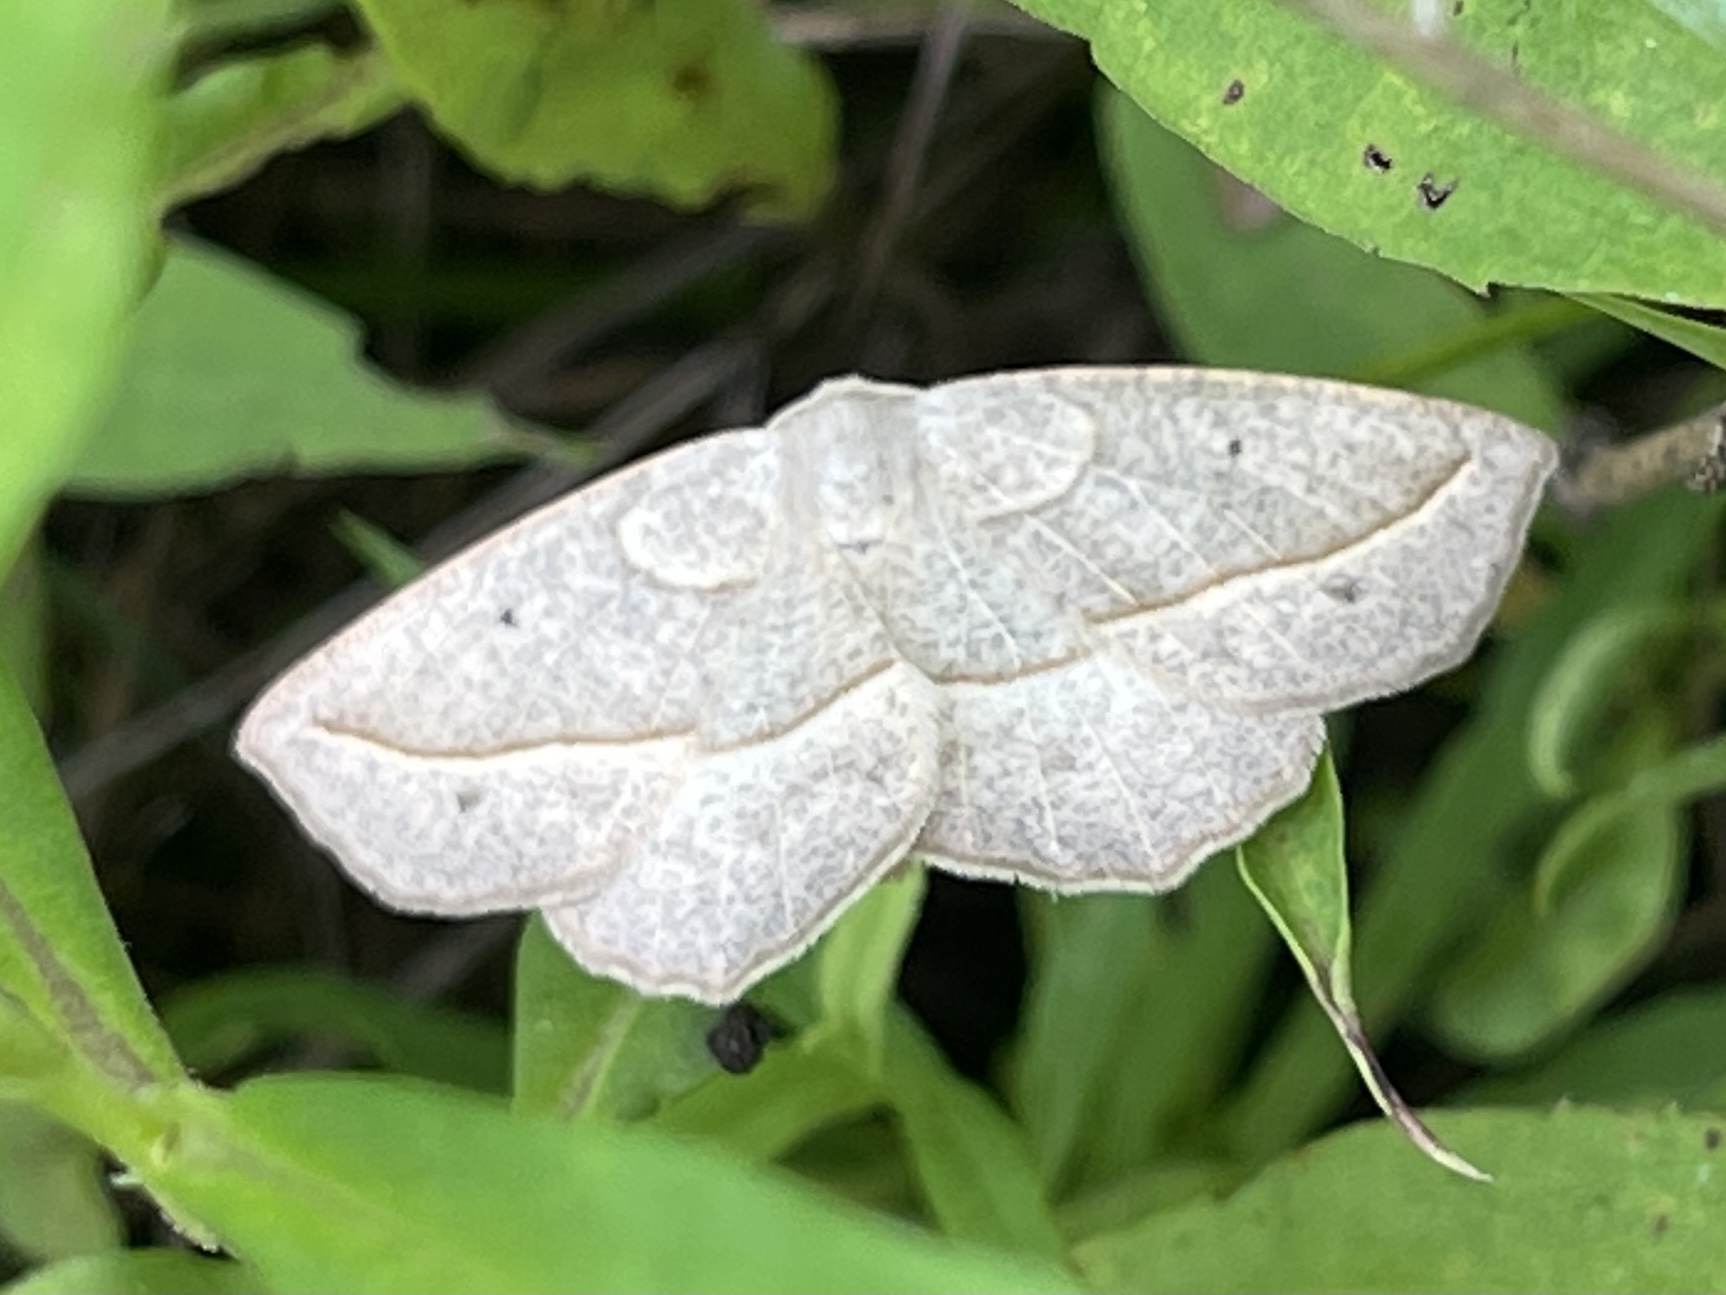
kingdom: Animalia
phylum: Arthropoda
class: Insecta
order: Lepidoptera
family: Geometridae
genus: Eusarca
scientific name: Eusarca confusaria
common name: Confused eusarca
